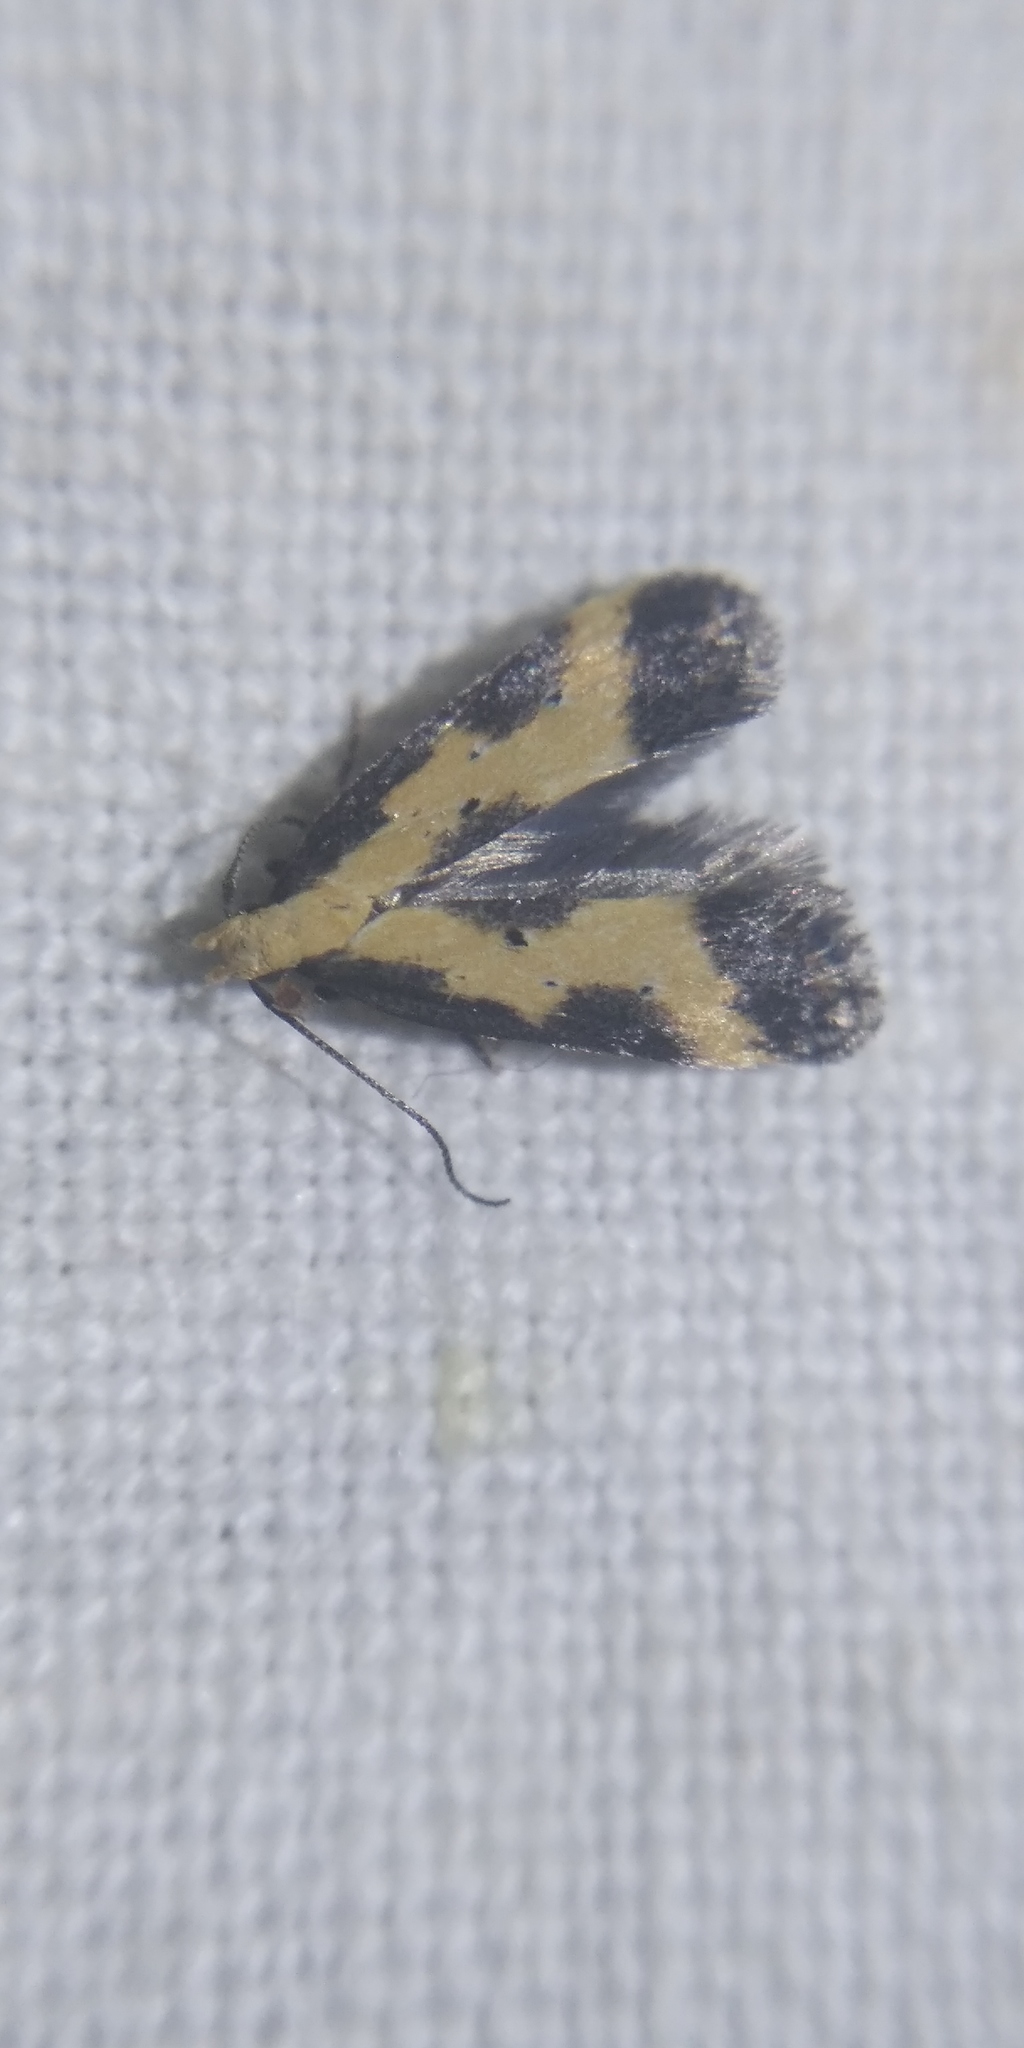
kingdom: Animalia
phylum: Arthropoda
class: Insecta
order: Lepidoptera
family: Gelechiidae
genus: Brachmia
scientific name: Brachmia dimidiella
